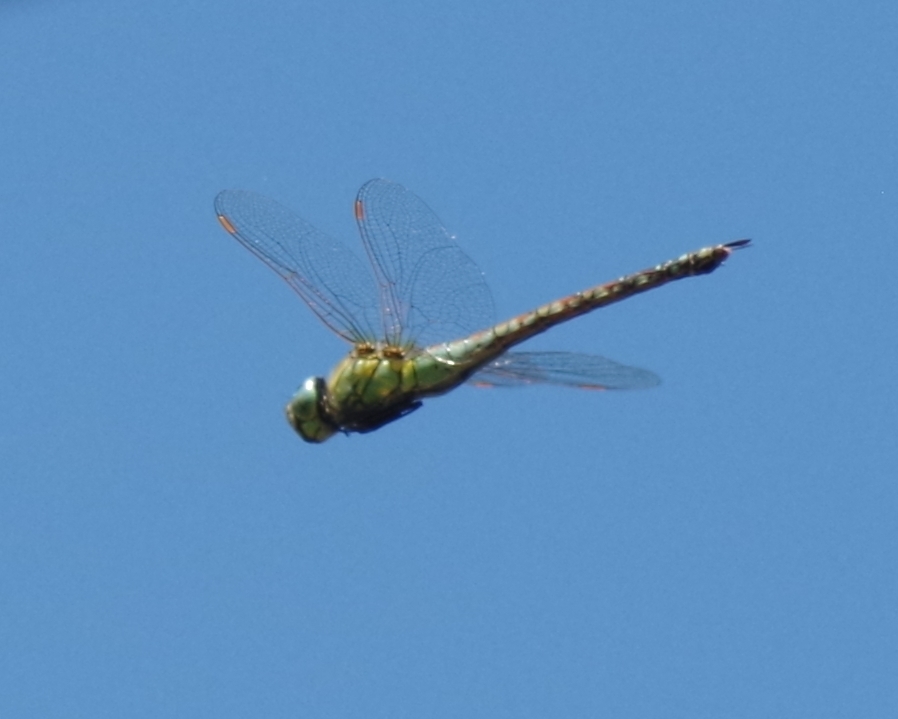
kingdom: Animalia
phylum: Arthropoda
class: Insecta
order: Odonata
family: Aeshnidae
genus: Aeshna
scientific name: Aeshna affinis
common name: Southern migrant hawker
